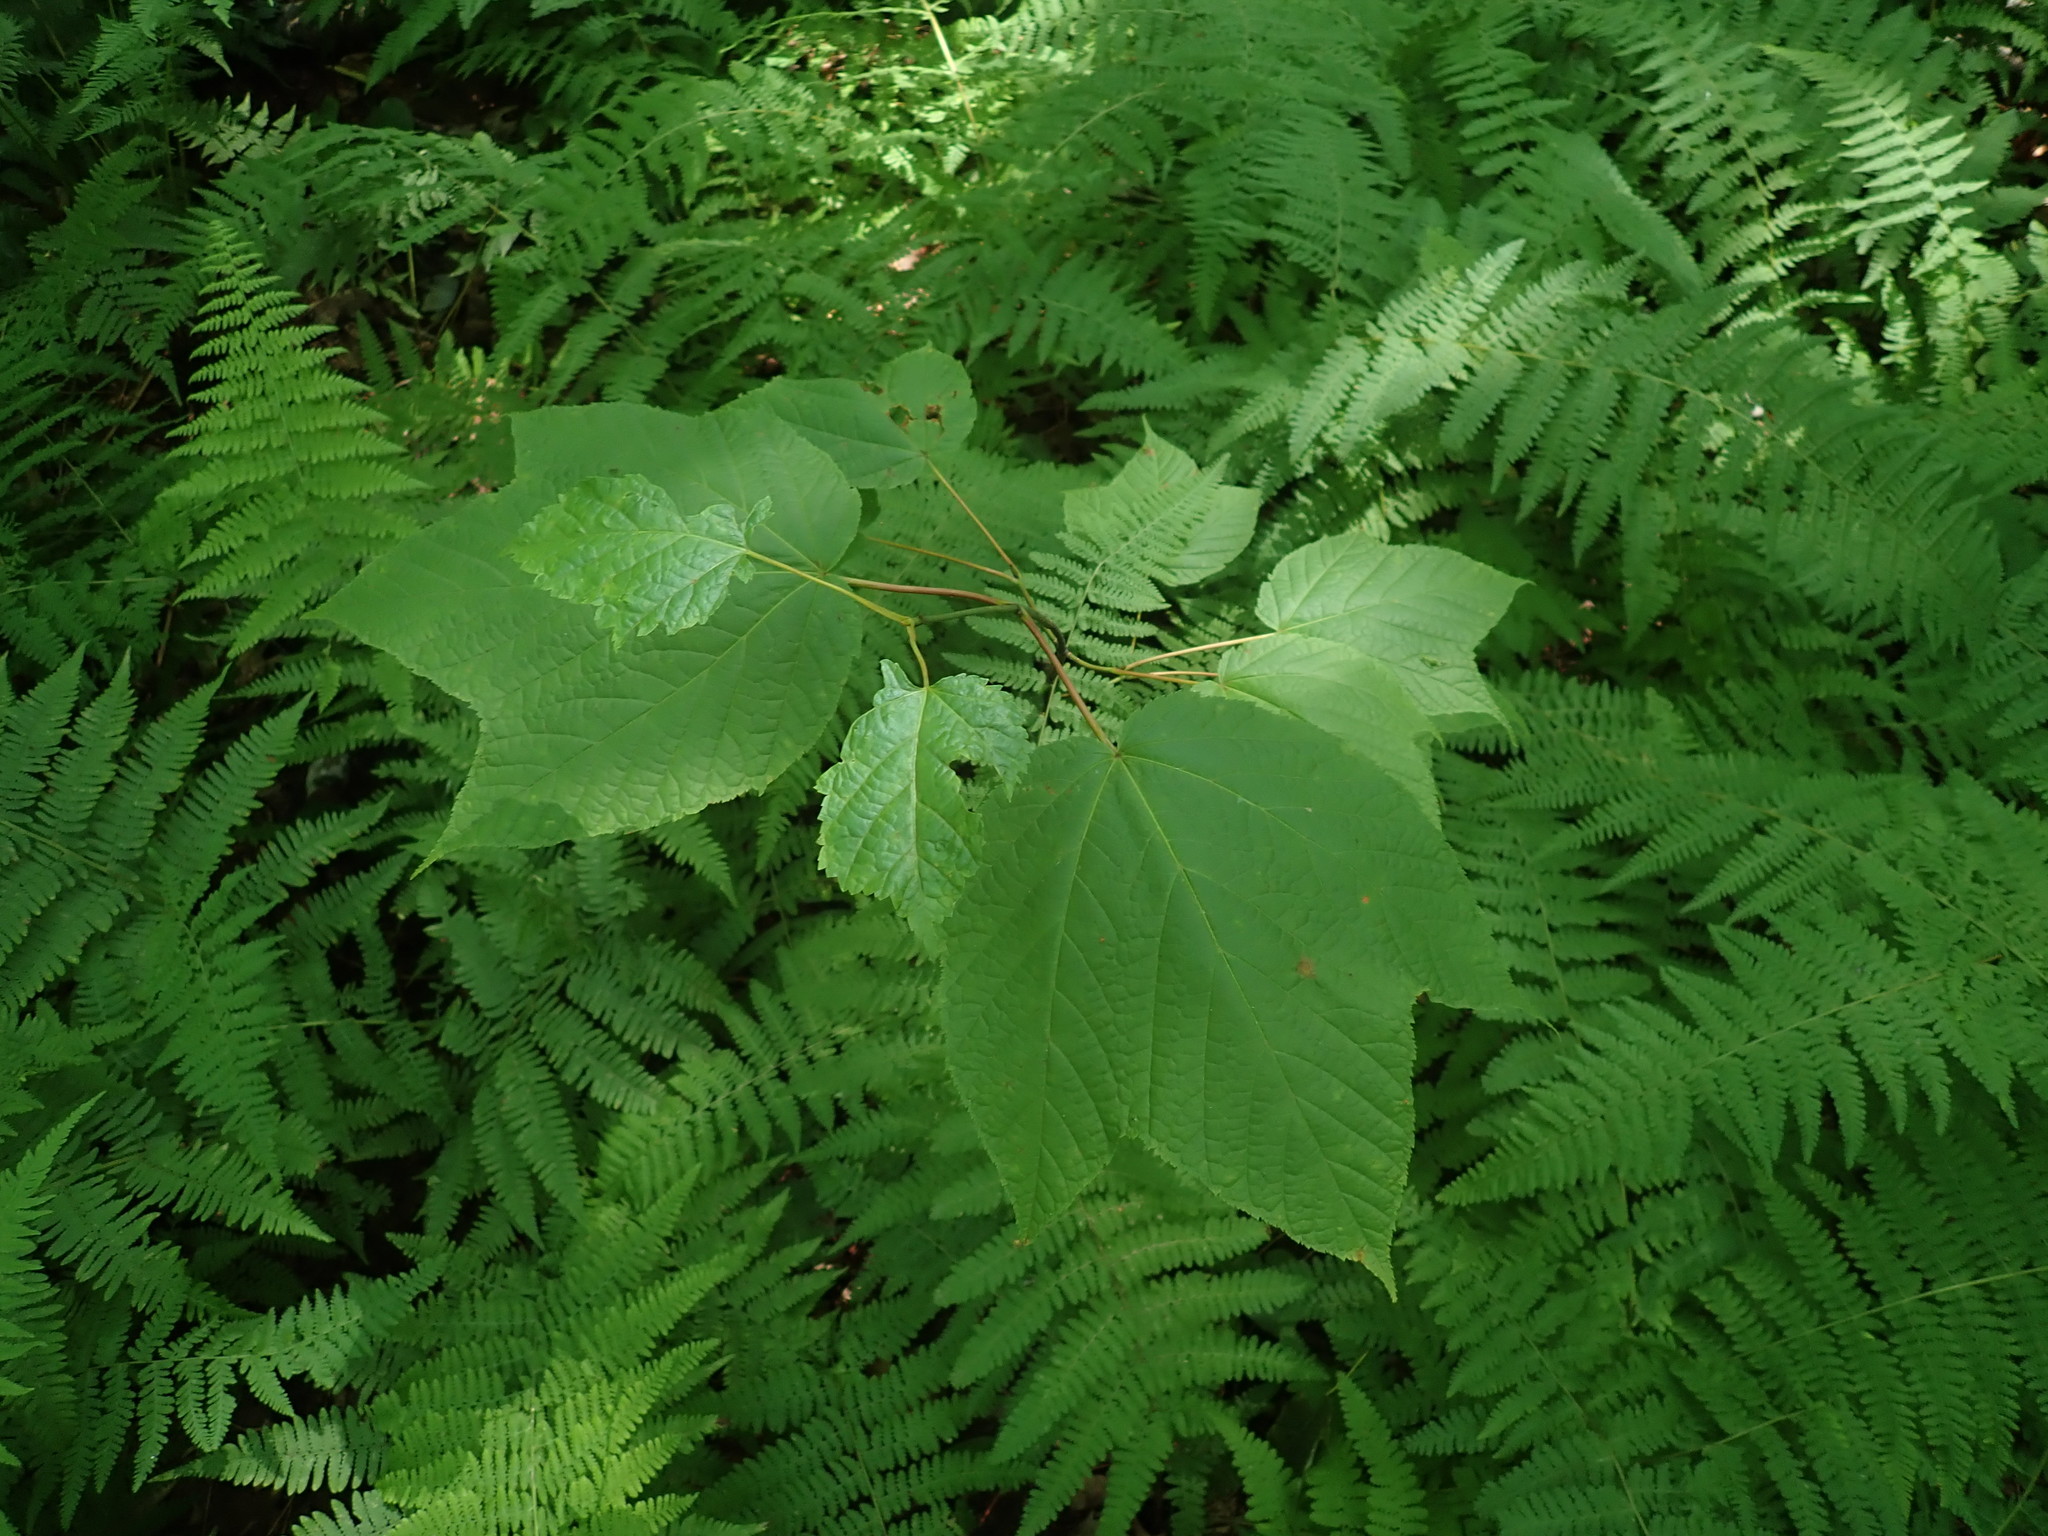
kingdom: Plantae
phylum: Tracheophyta
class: Magnoliopsida
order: Sapindales
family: Sapindaceae
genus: Acer
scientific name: Acer pensylvanicum
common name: Moosewood
